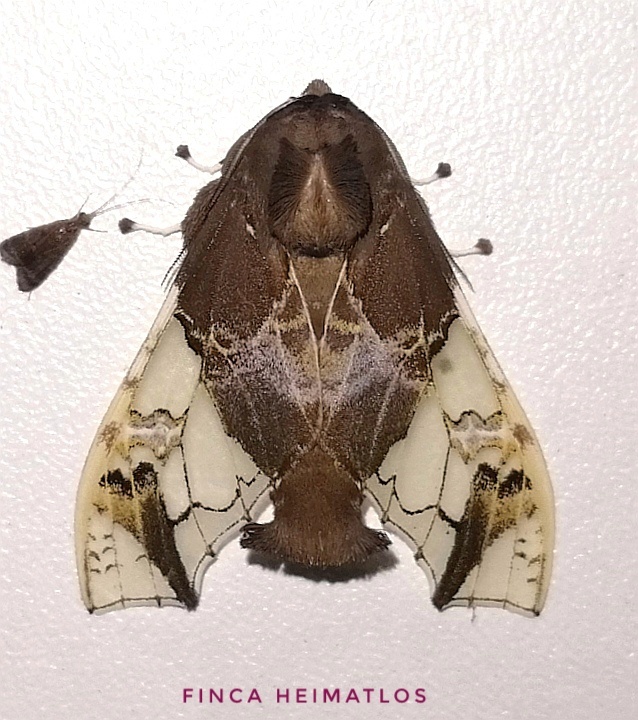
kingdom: Animalia
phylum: Arthropoda
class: Insecta
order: Lepidoptera
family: Erebidae
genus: Parathyris
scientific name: Parathyris semivitrea
